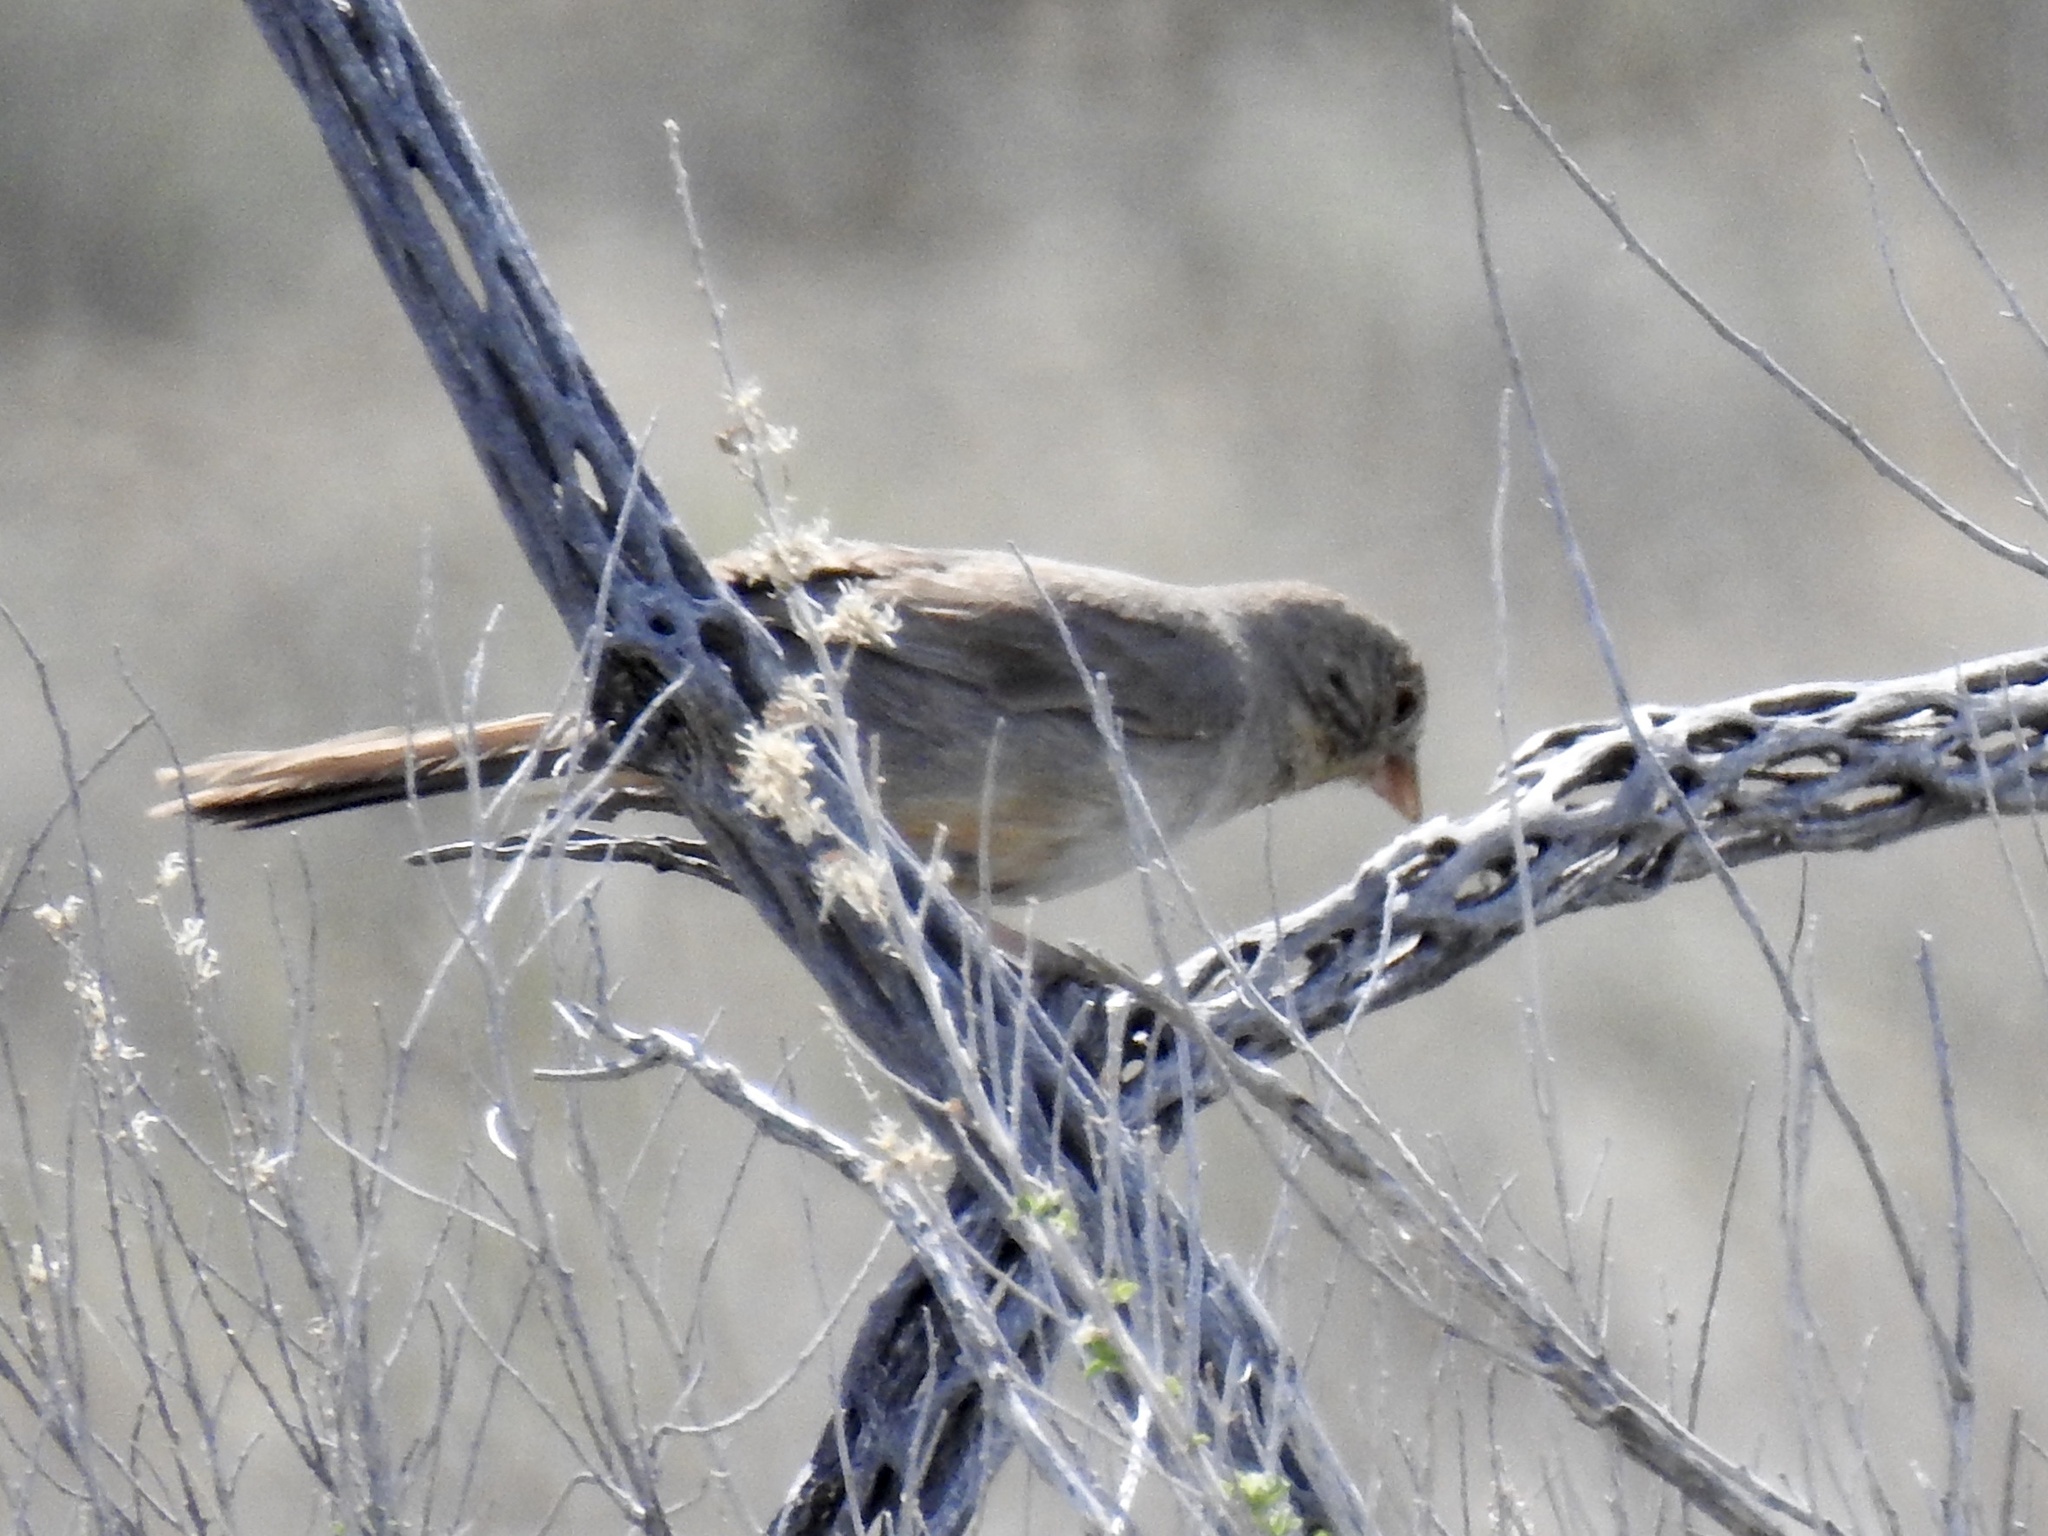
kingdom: Animalia
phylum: Chordata
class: Aves
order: Passeriformes
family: Passerellidae
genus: Melozone
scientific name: Melozone fusca
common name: Canyon towhee
